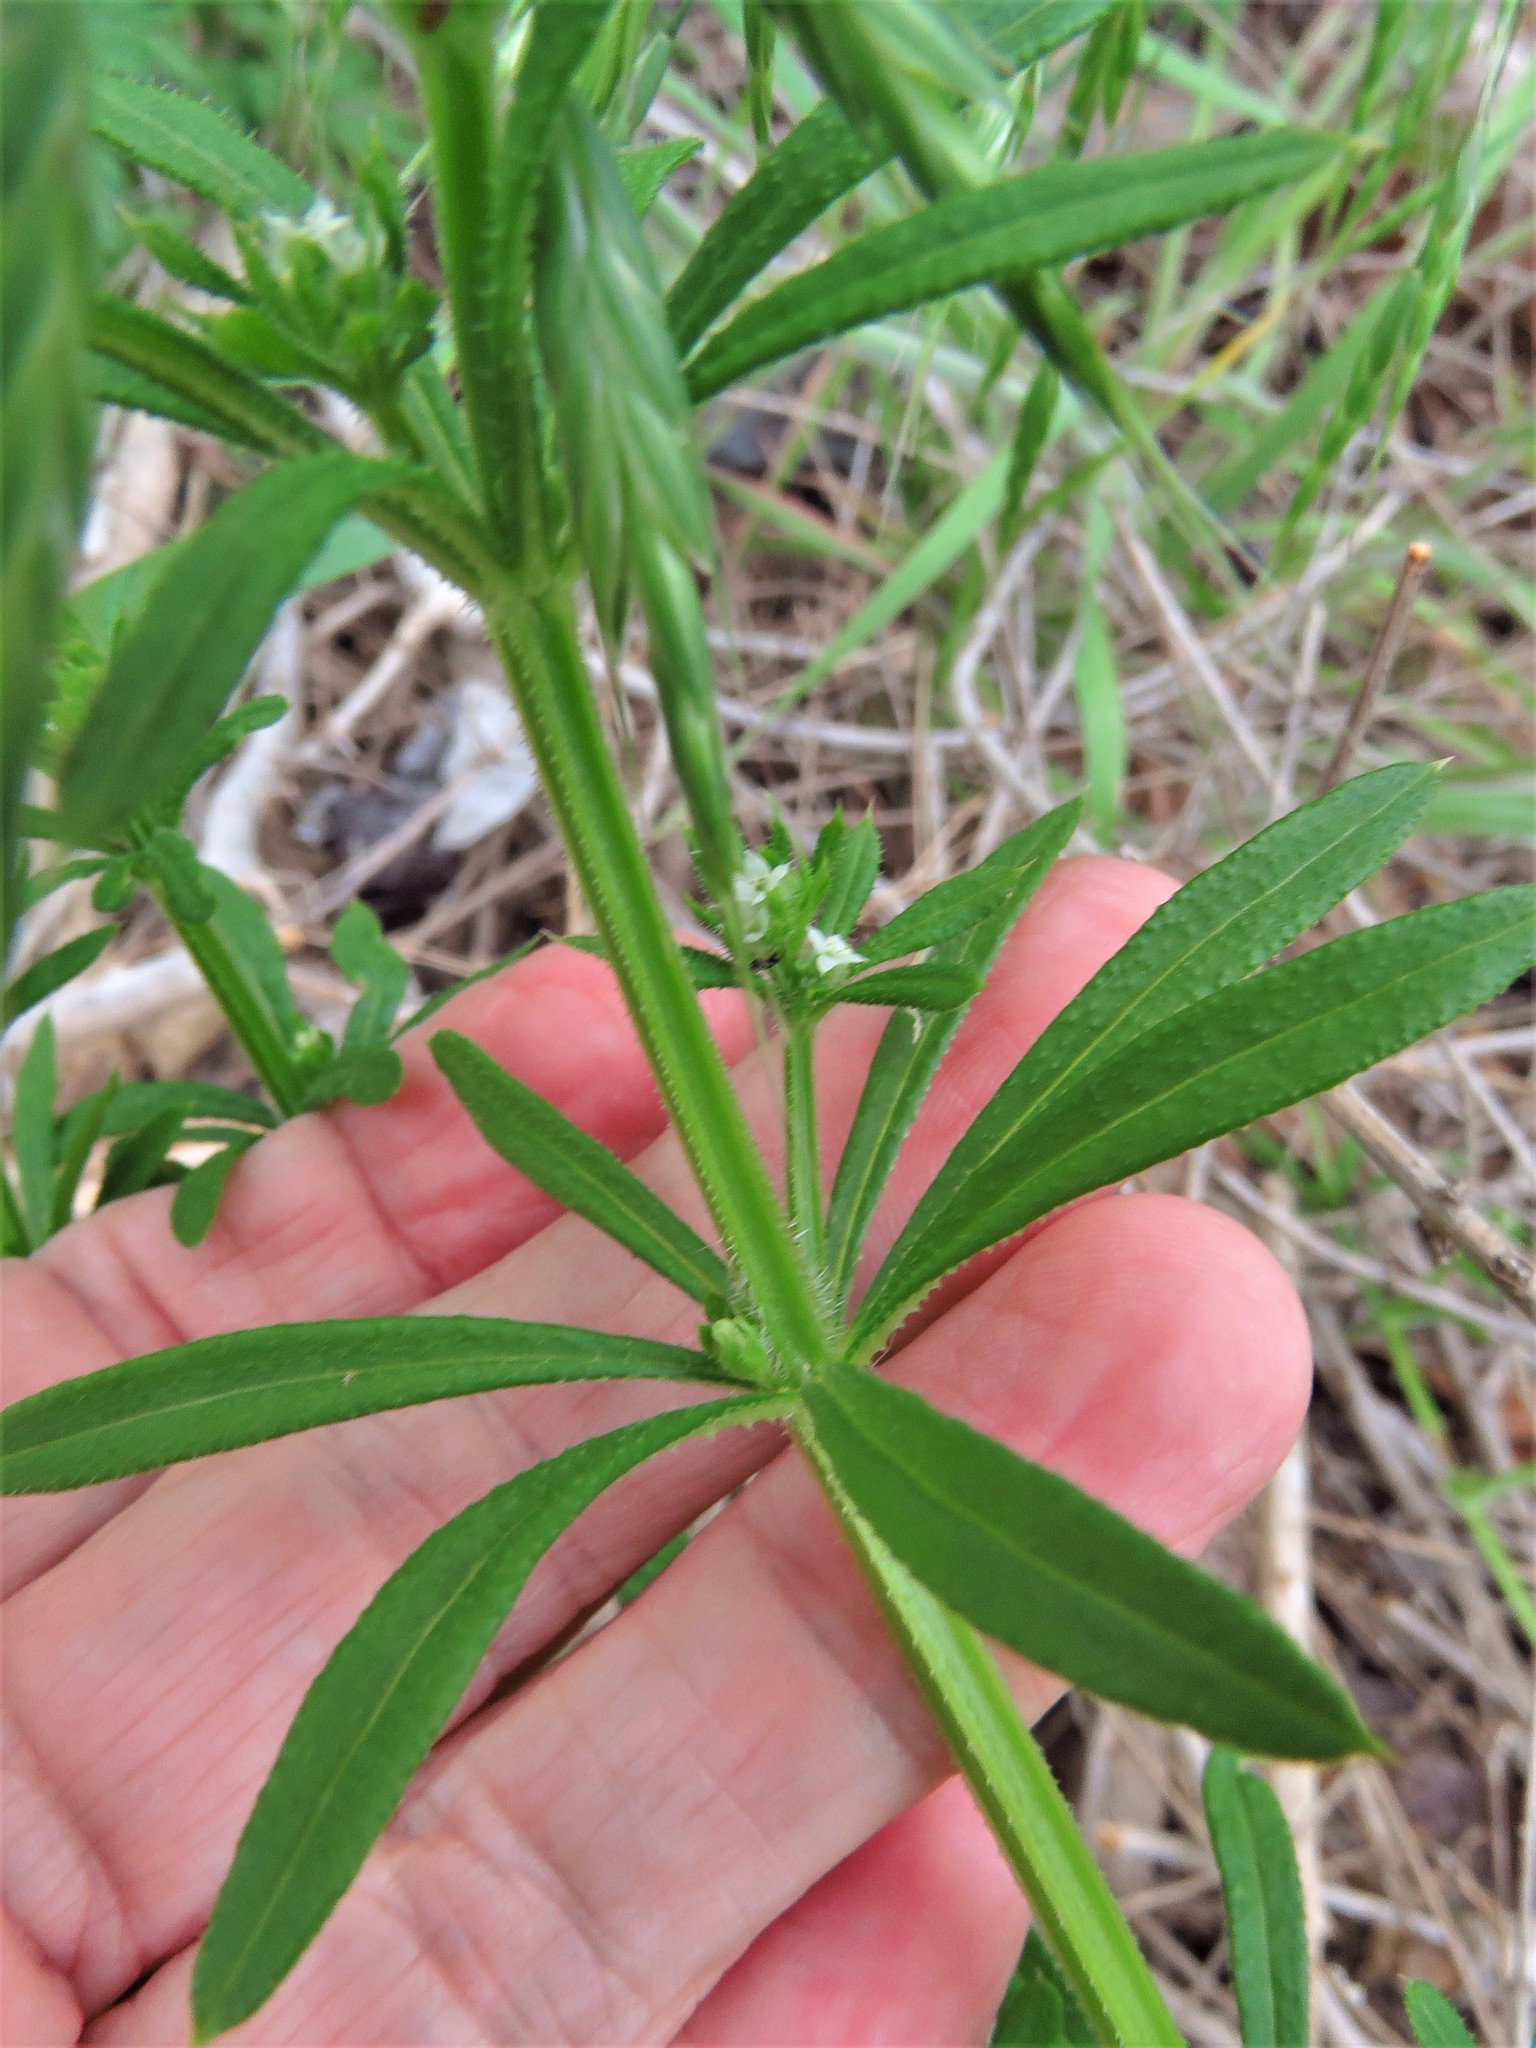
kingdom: Plantae
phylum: Tracheophyta
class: Magnoliopsida
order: Gentianales
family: Rubiaceae
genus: Galium
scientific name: Galium aparine
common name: Cleavers
